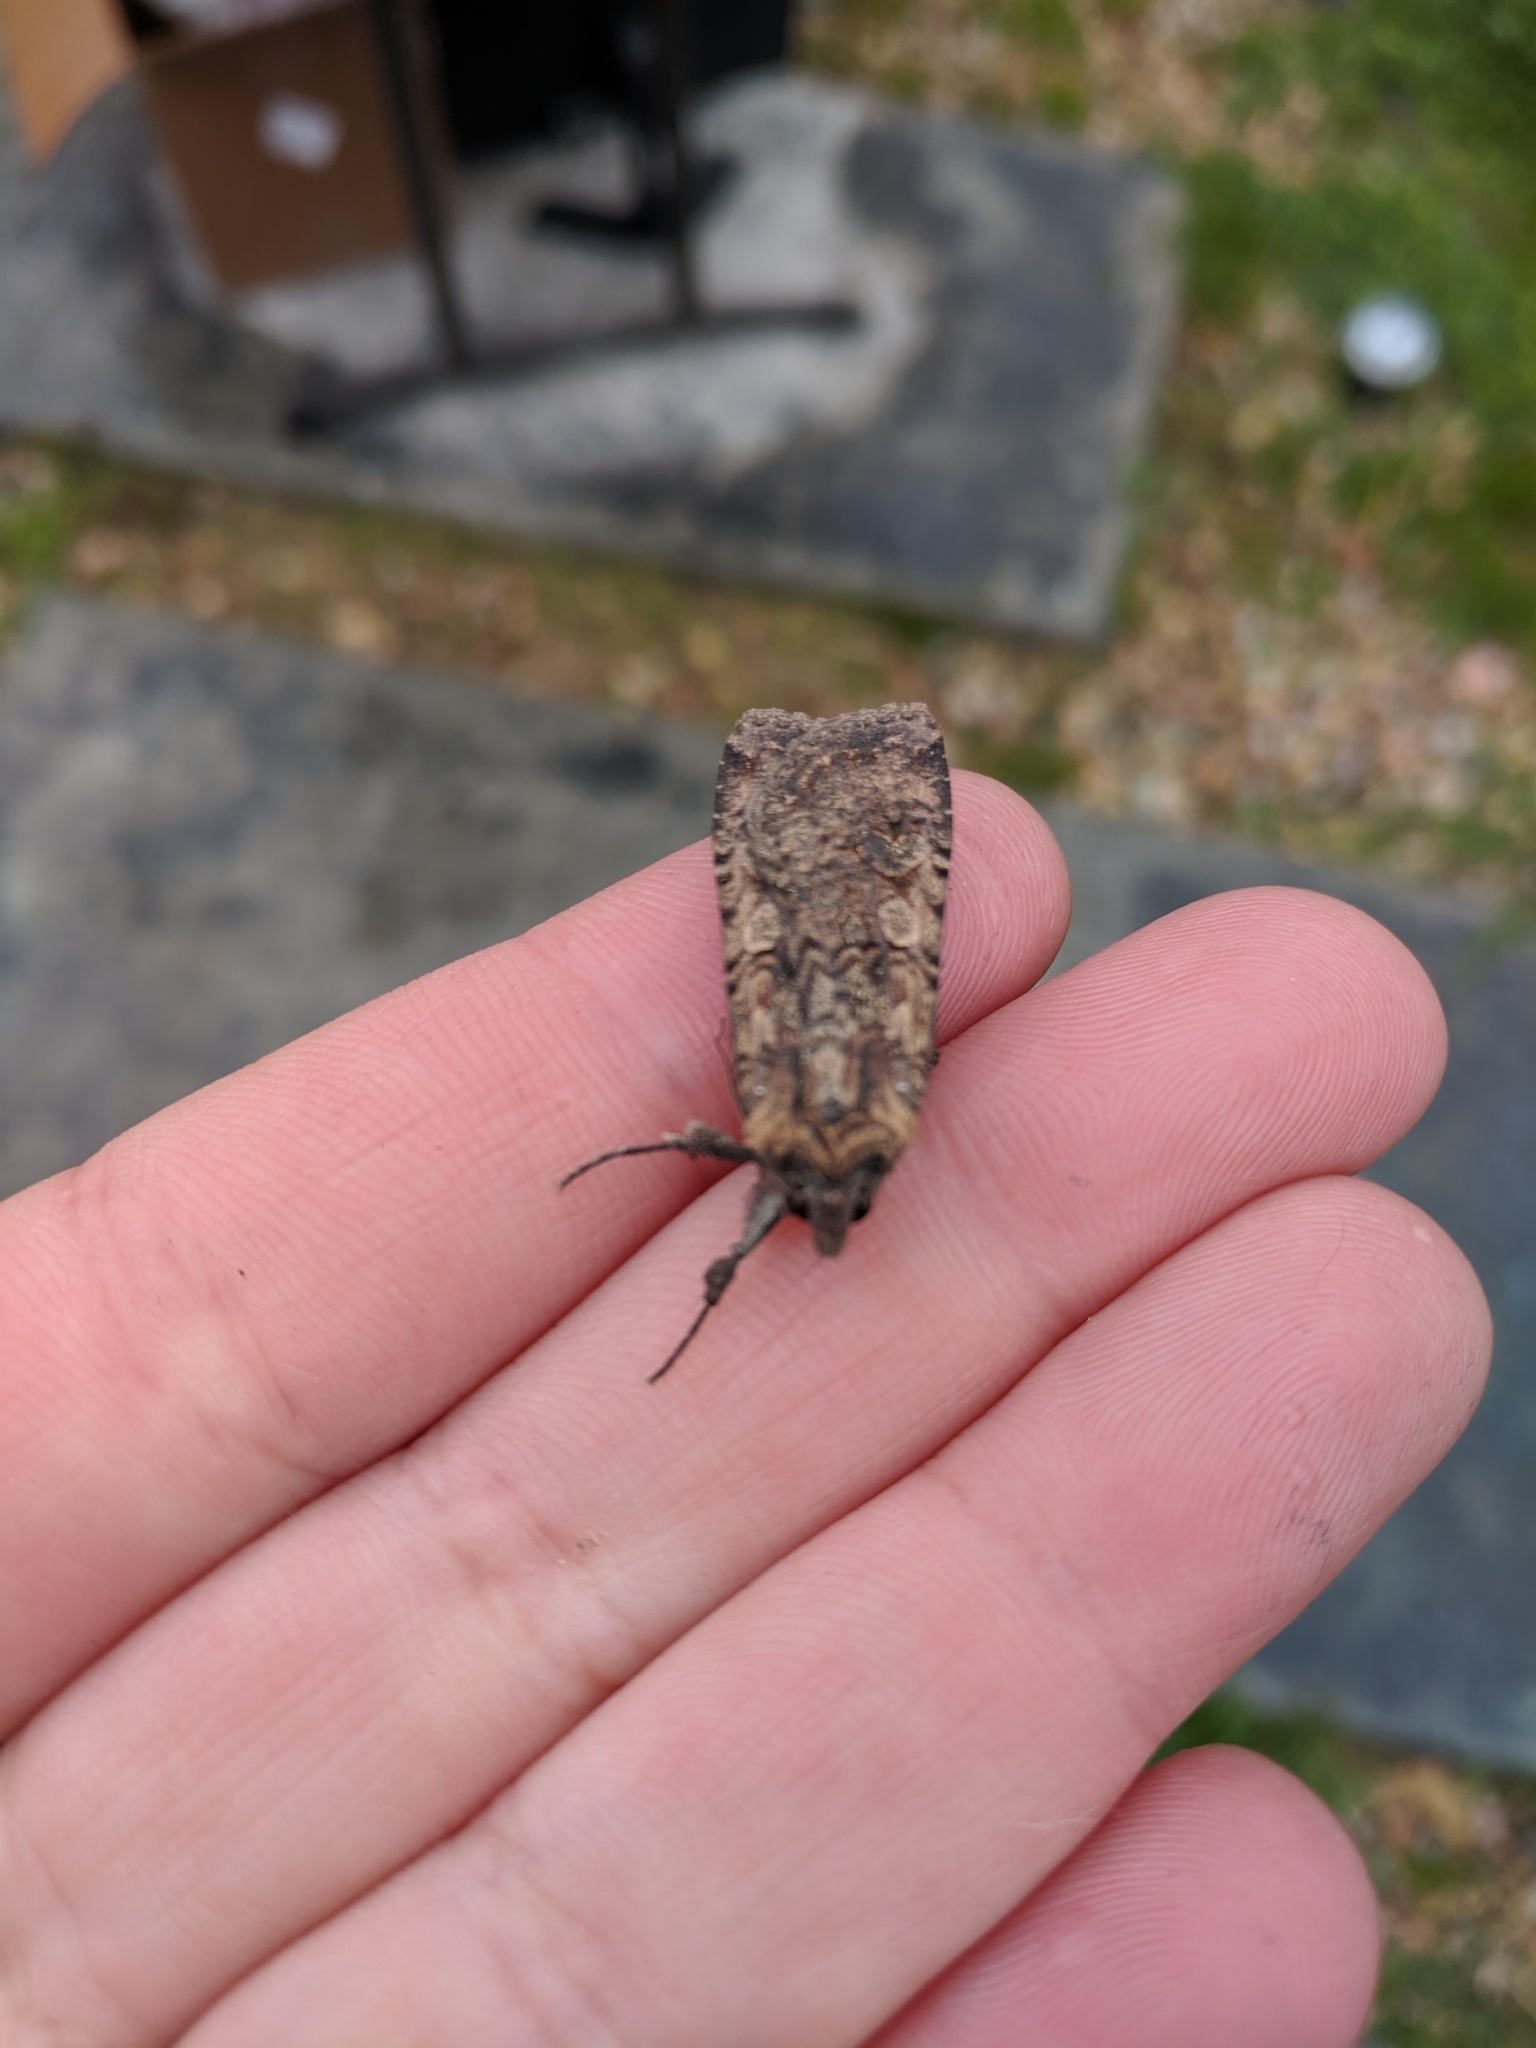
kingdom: Animalia
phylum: Arthropoda
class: Insecta
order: Lepidoptera
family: Noctuidae
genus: Peridroma
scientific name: Peridroma saucia
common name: Pearly underwing
